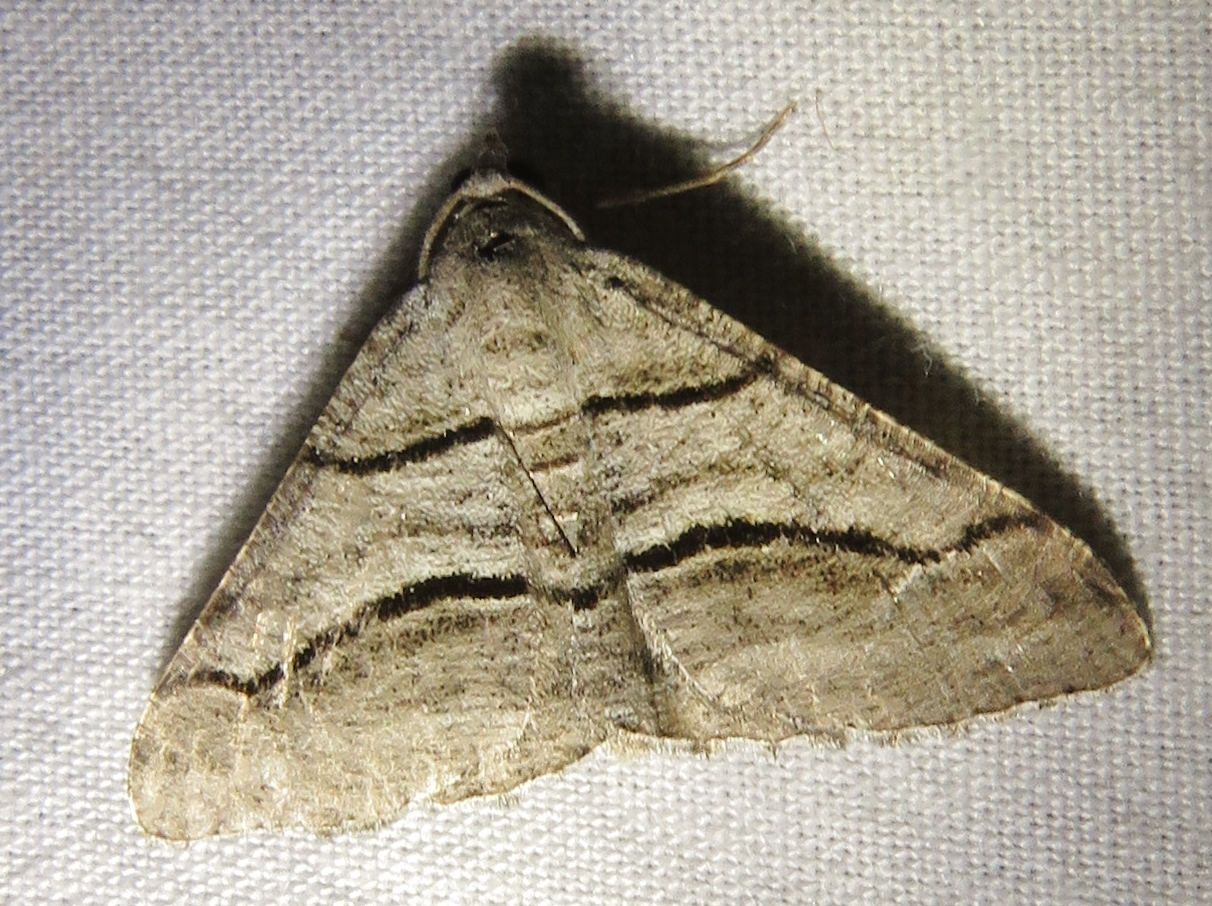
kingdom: Animalia
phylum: Arthropoda
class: Insecta
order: Lepidoptera
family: Geometridae
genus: Digrammia
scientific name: Digrammia continuata
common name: Curve-lined angle
